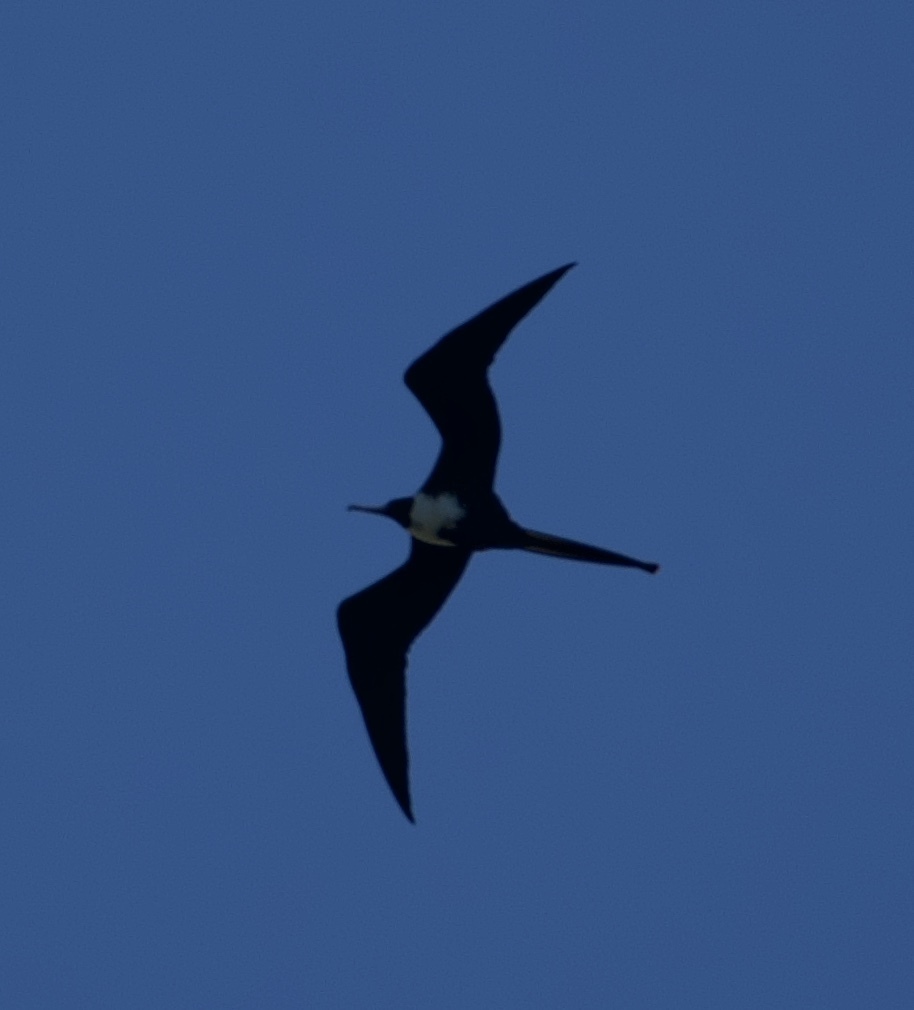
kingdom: Animalia
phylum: Chordata
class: Aves
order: Suliformes
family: Fregatidae
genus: Fregata
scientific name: Fregata magnificens
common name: Magnificent frigatebird
